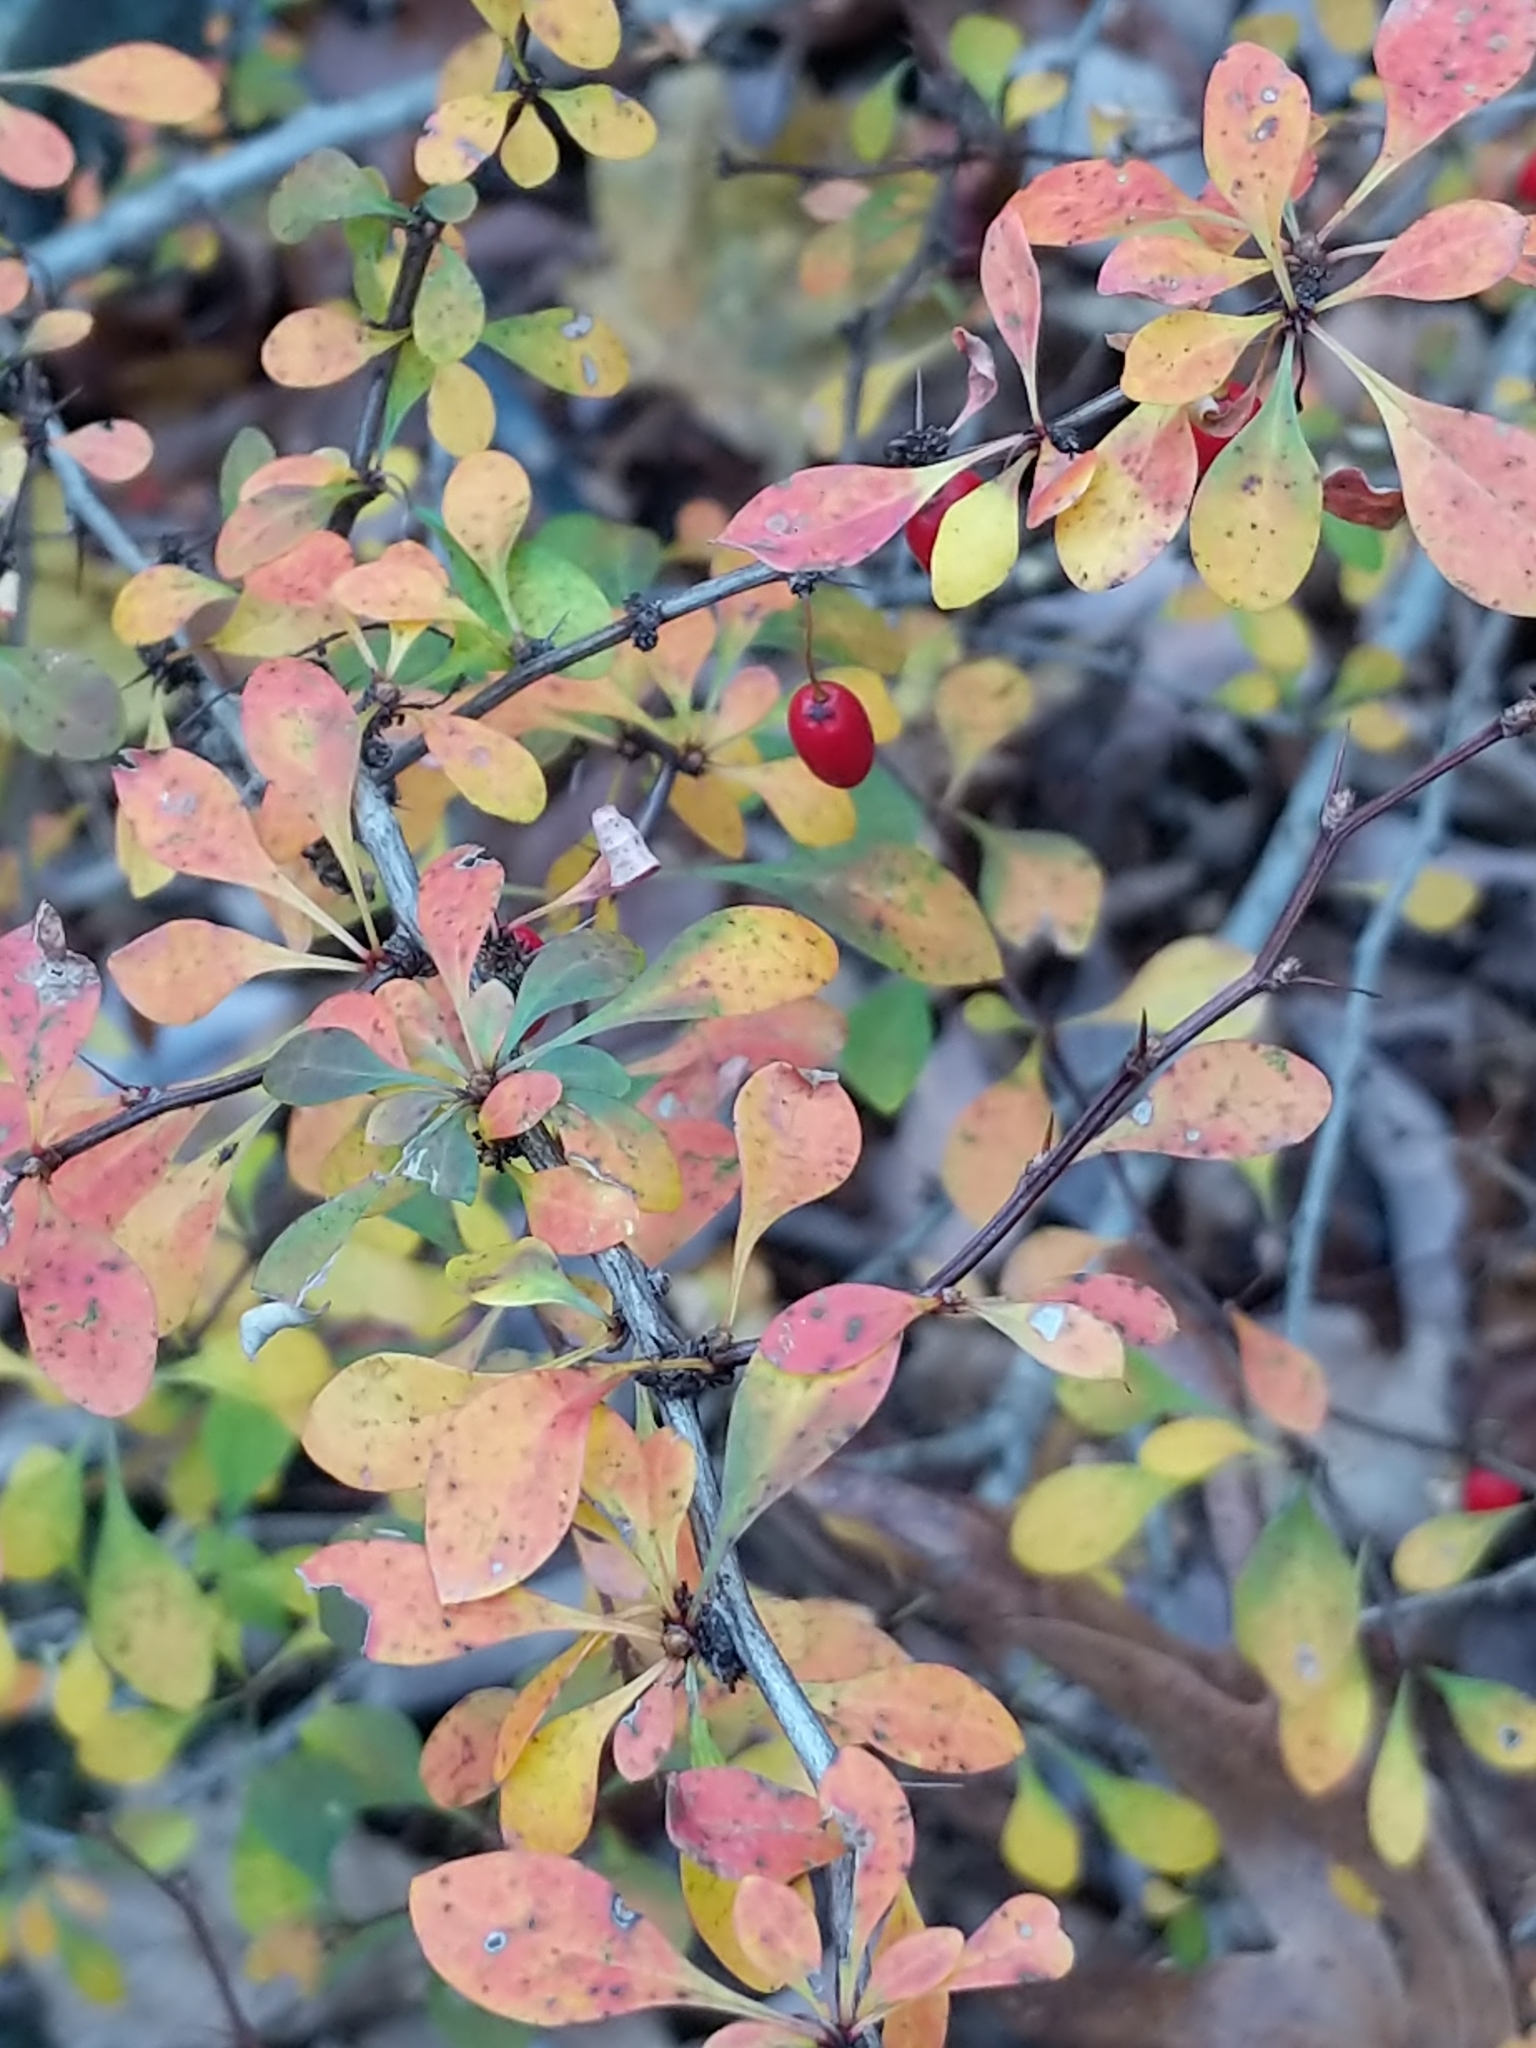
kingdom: Plantae
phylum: Tracheophyta
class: Magnoliopsida
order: Ranunculales
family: Berberidaceae
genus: Berberis
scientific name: Berberis thunbergii
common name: Japanese barberry
